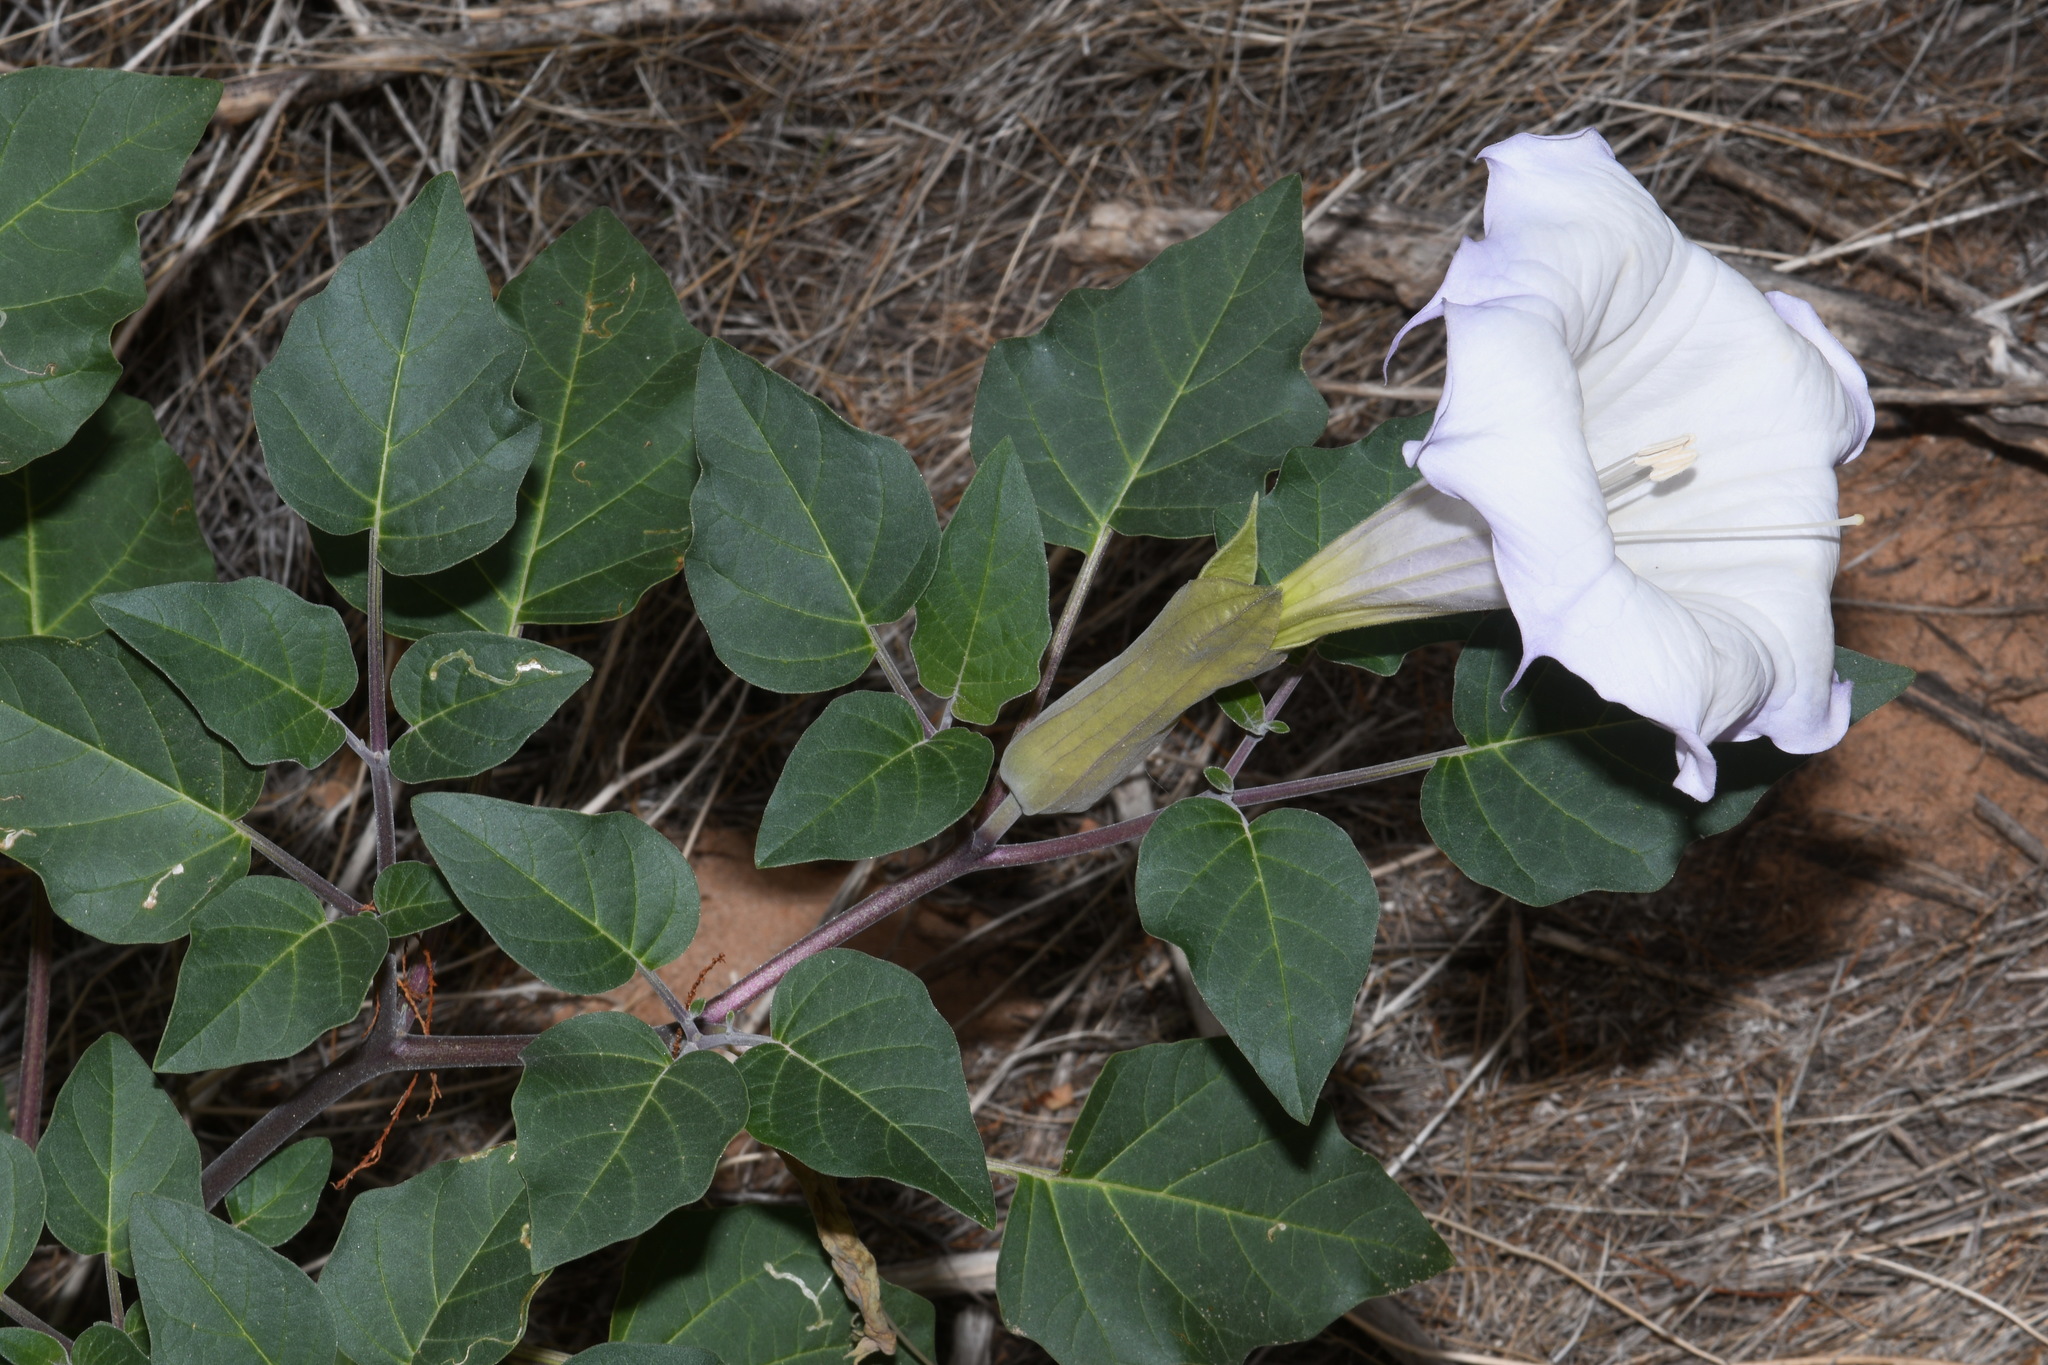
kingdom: Plantae
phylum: Tracheophyta
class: Magnoliopsida
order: Solanales
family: Solanaceae
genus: Datura
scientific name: Datura wrightii
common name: Sacred thorn-apple
